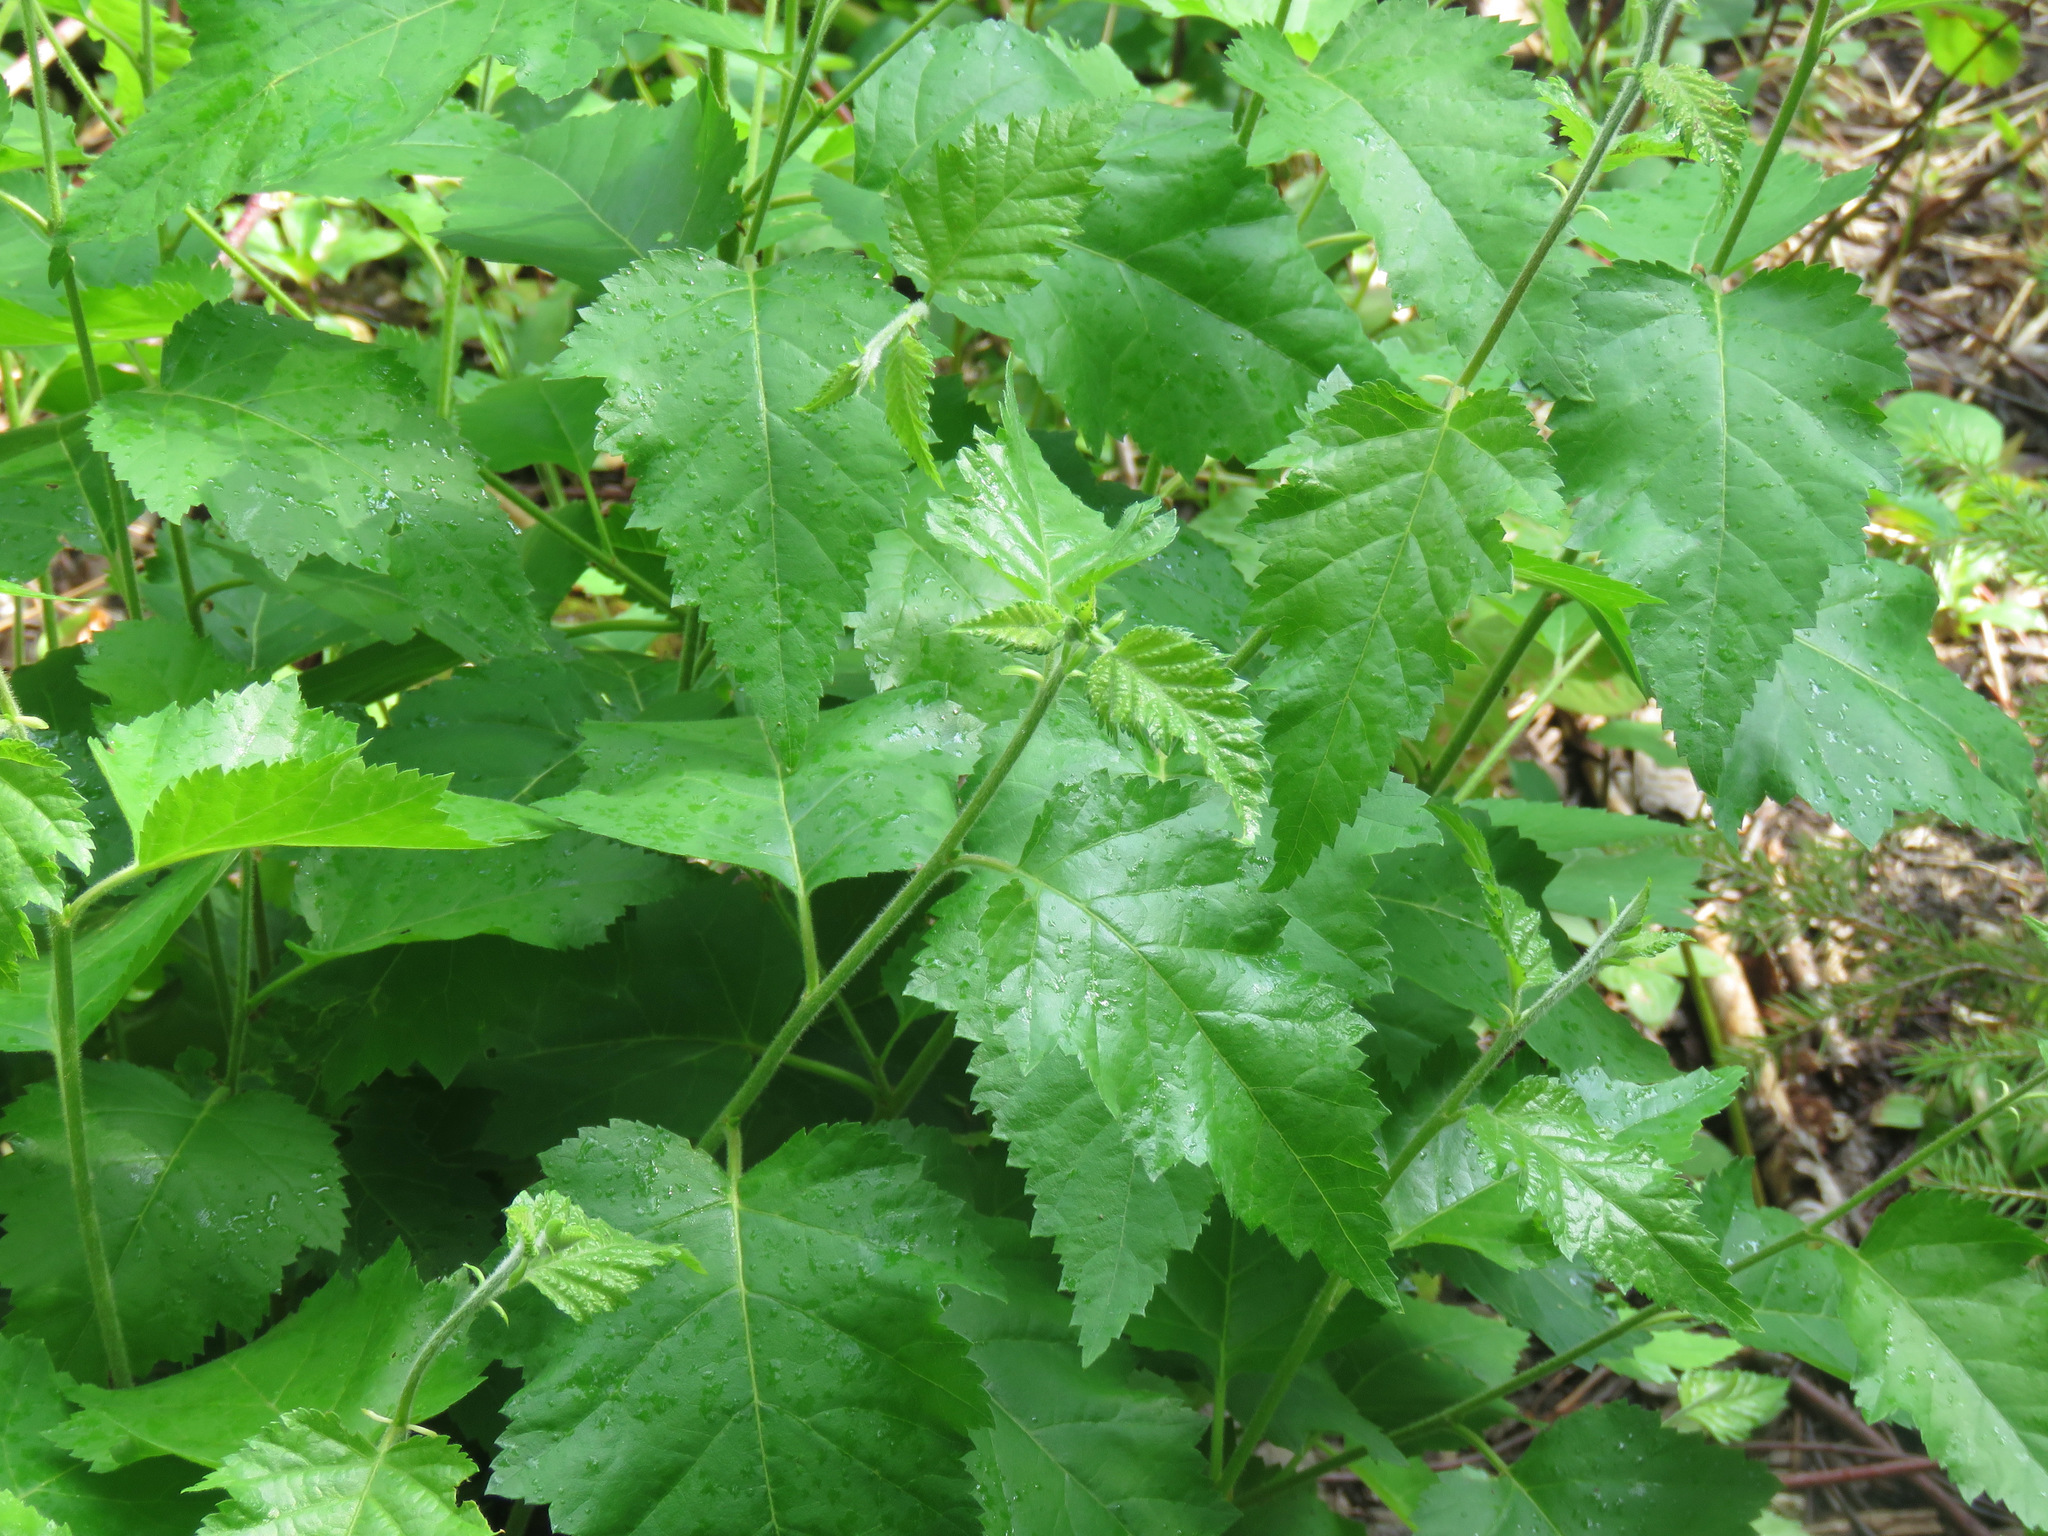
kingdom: Plantae
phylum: Tracheophyta
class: Magnoliopsida
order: Fagales
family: Betulaceae
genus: Betula
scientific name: Betula papyrifera
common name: Paper birch
